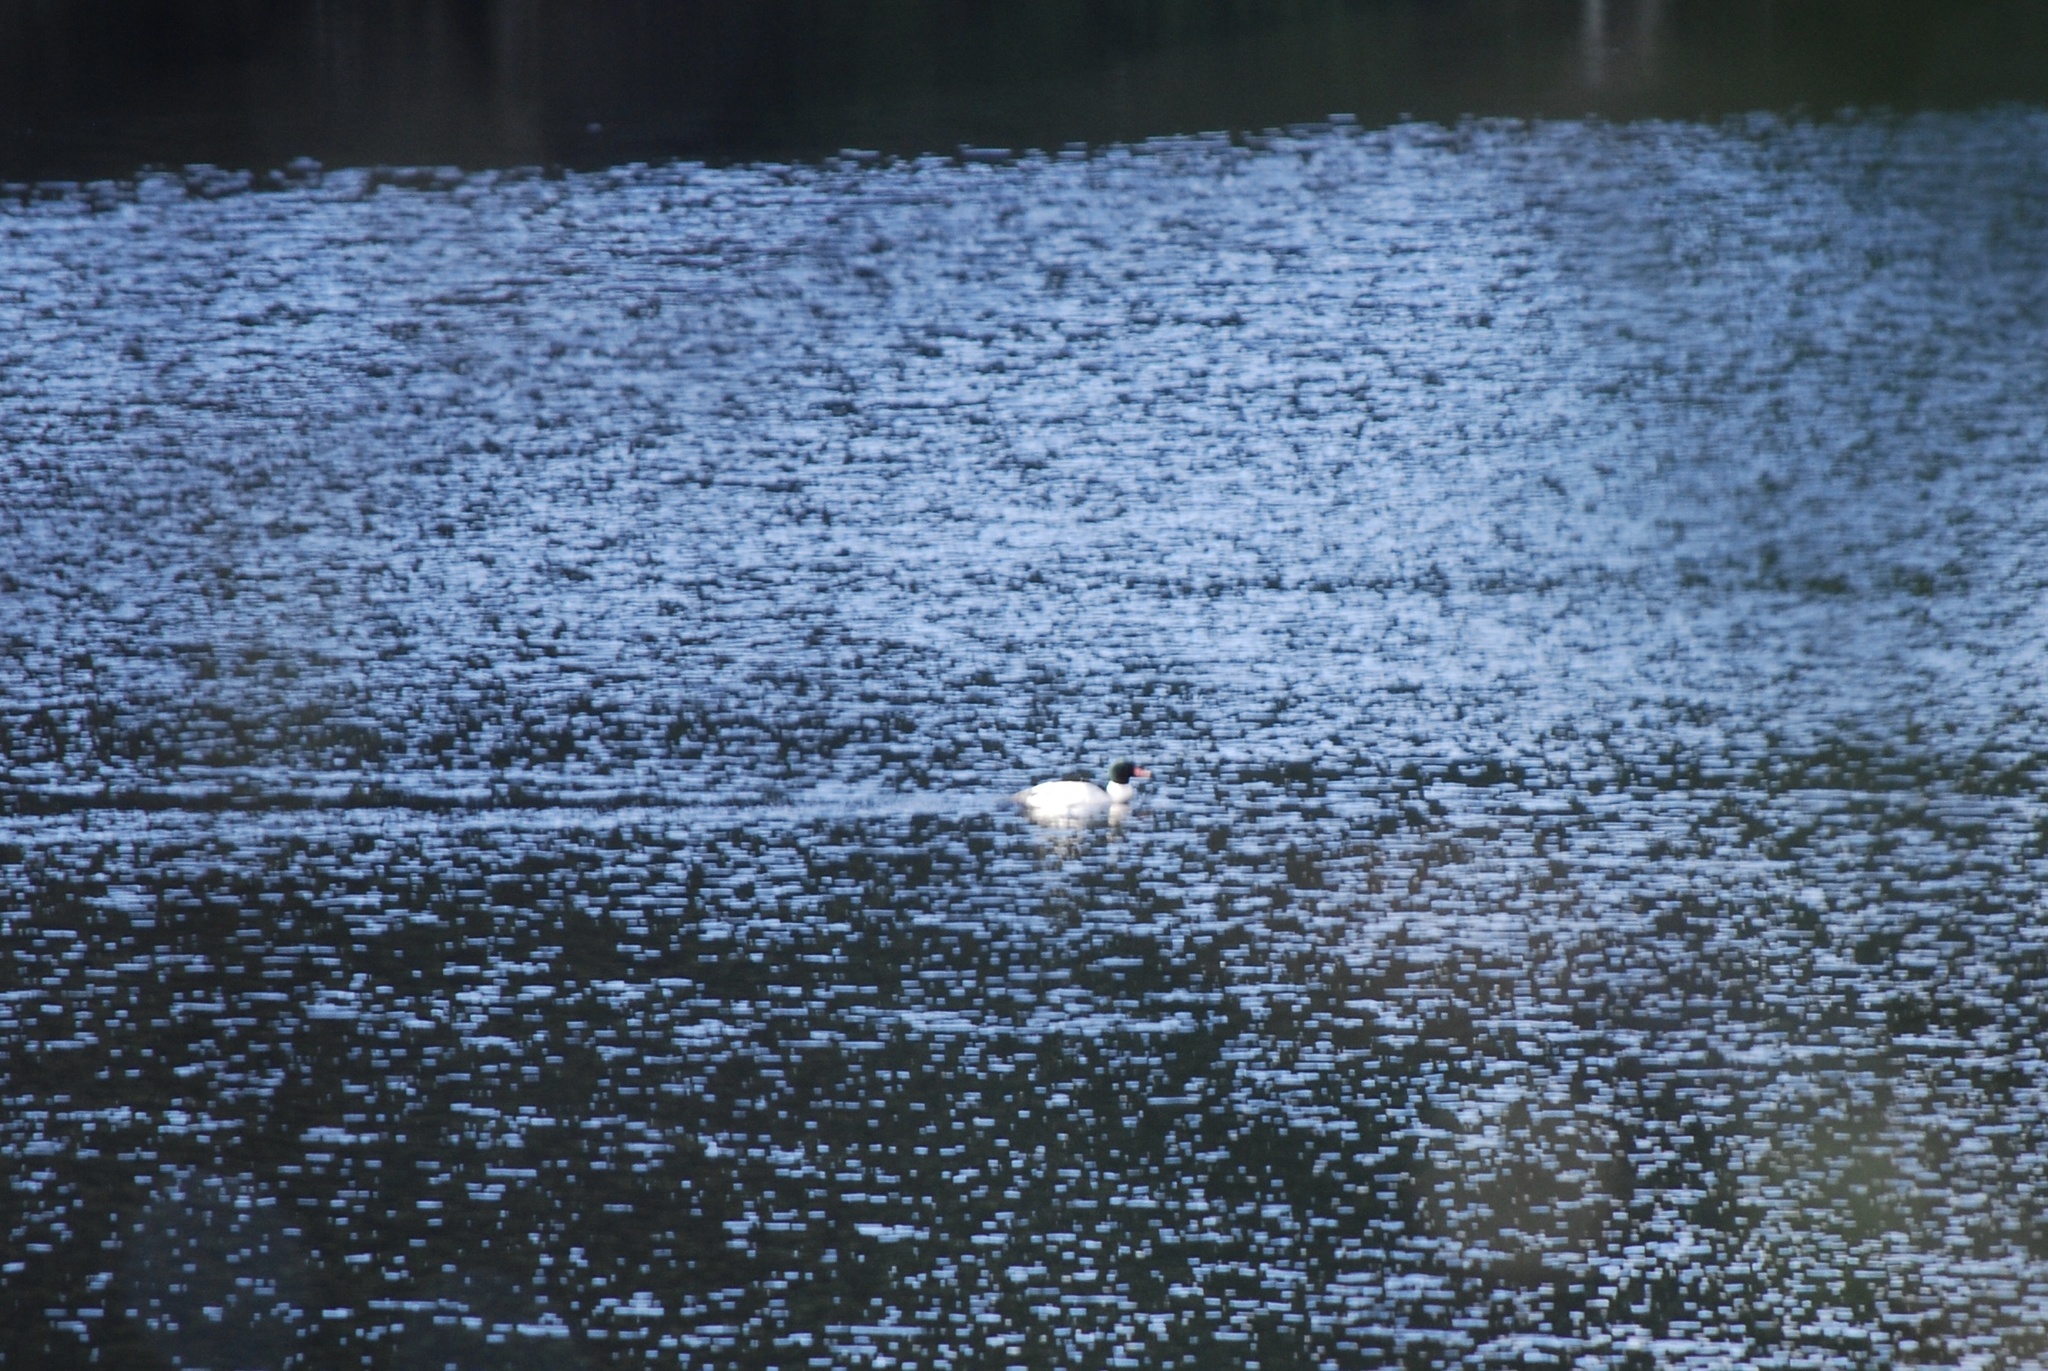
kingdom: Animalia
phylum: Chordata
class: Aves
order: Anseriformes
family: Anatidae
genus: Mergus
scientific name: Mergus merganser
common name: Common merganser
